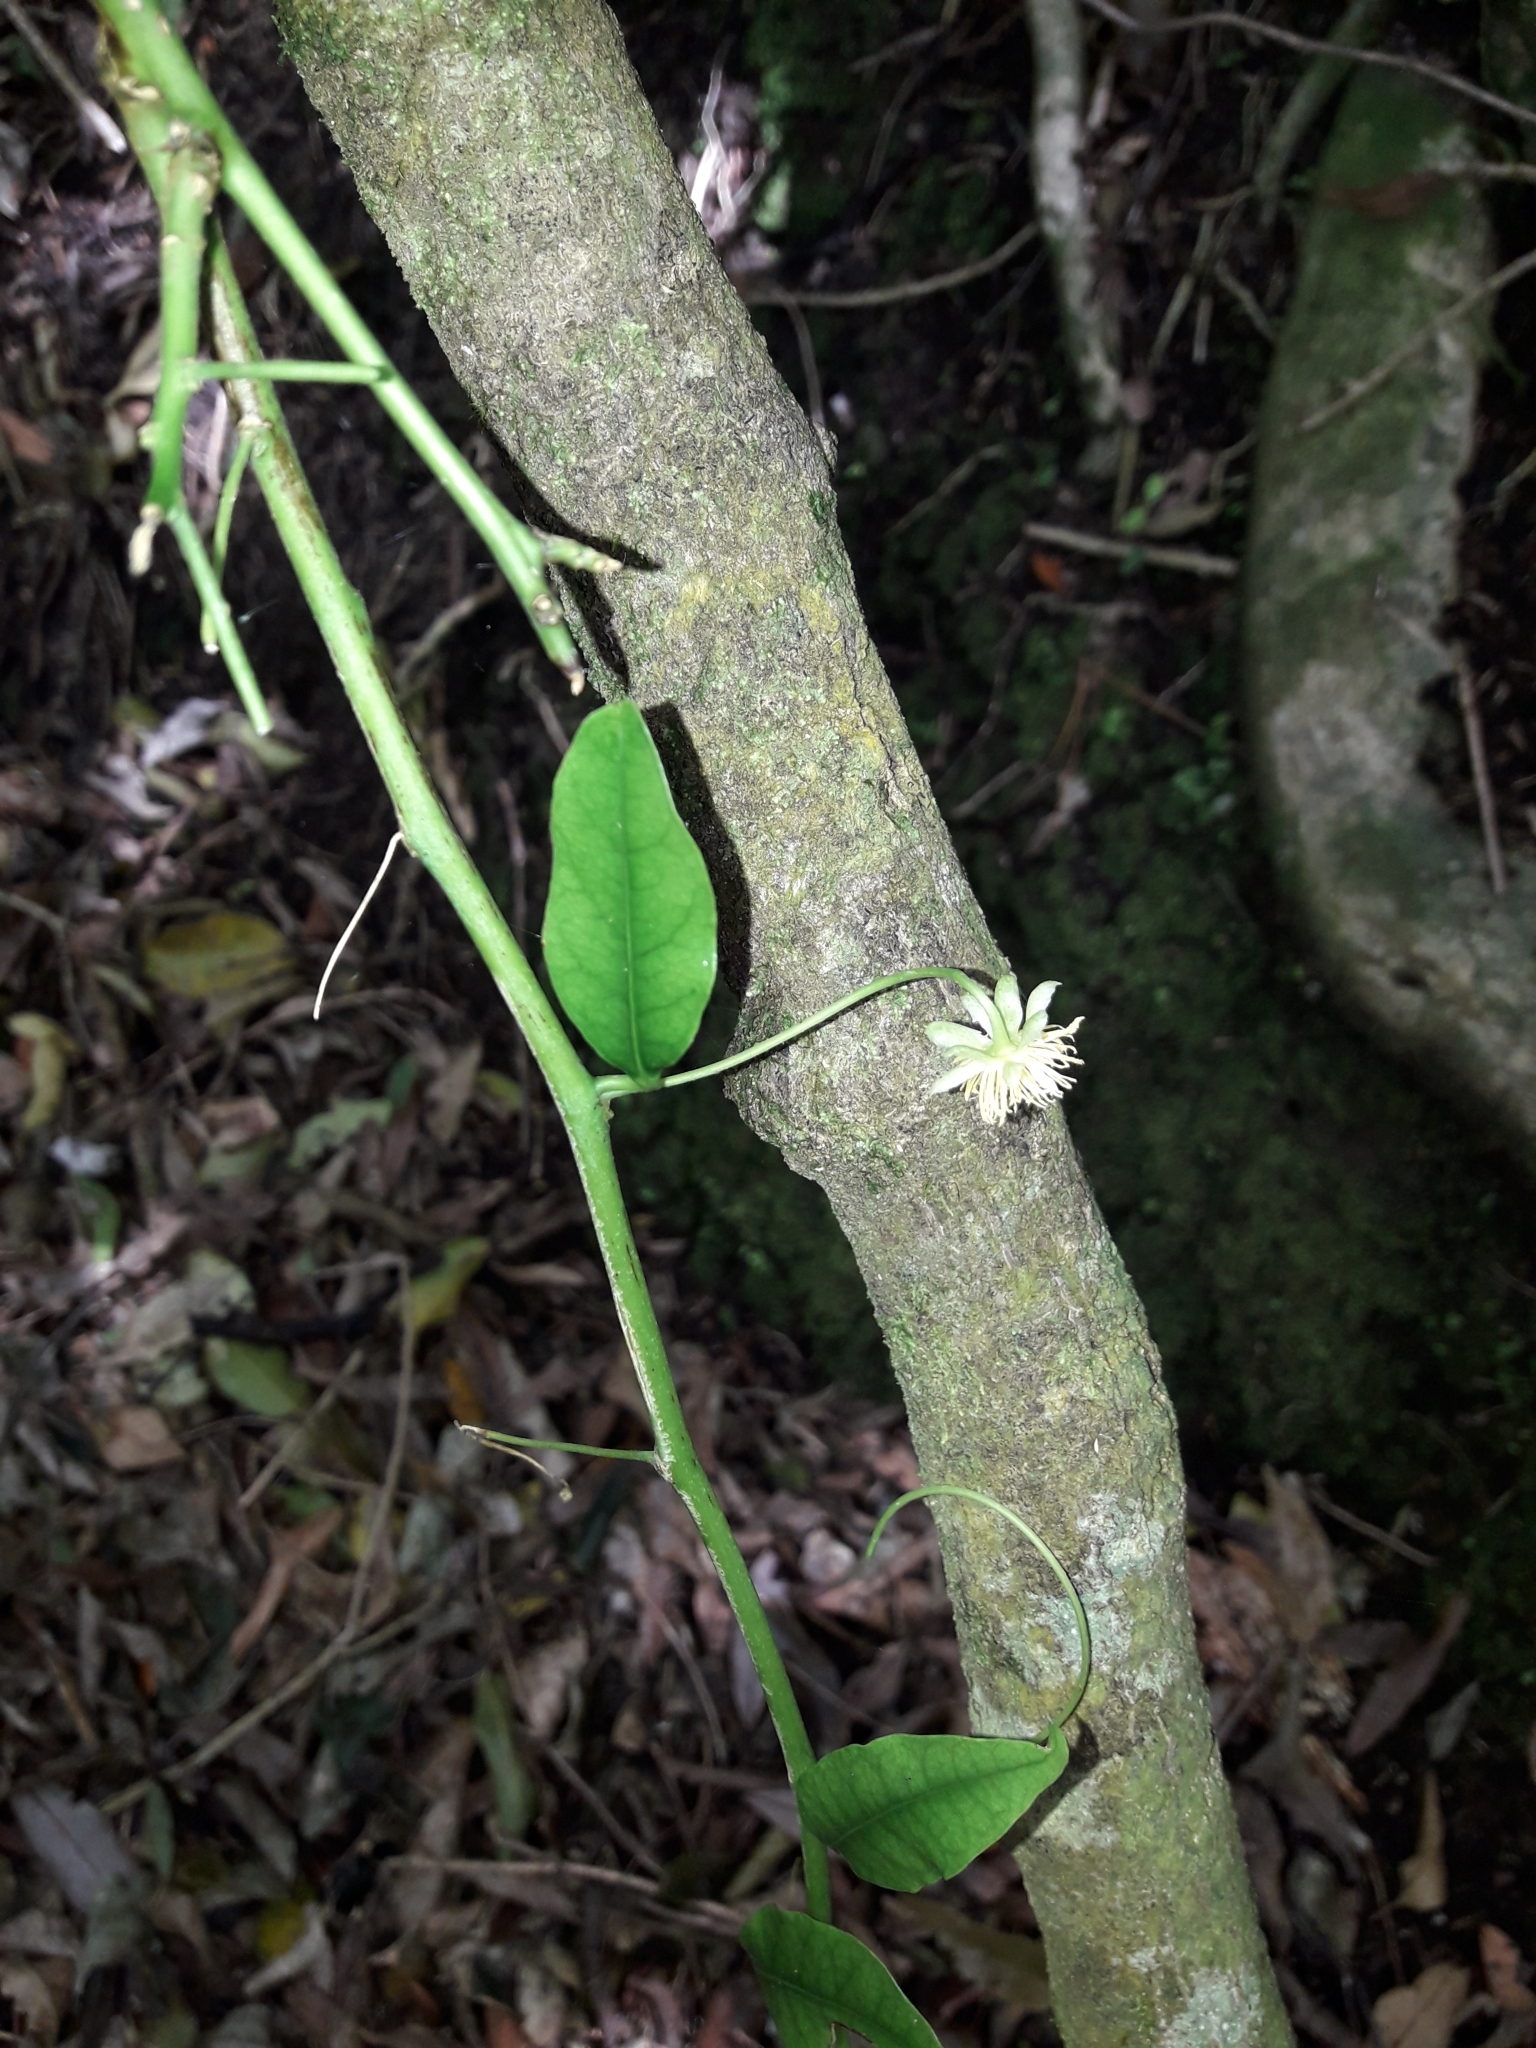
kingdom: Plantae
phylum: Tracheophyta
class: Magnoliopsida
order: Malpighiales
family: Passifloraceae
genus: Passiflora
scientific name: Passiflora tetrandra
